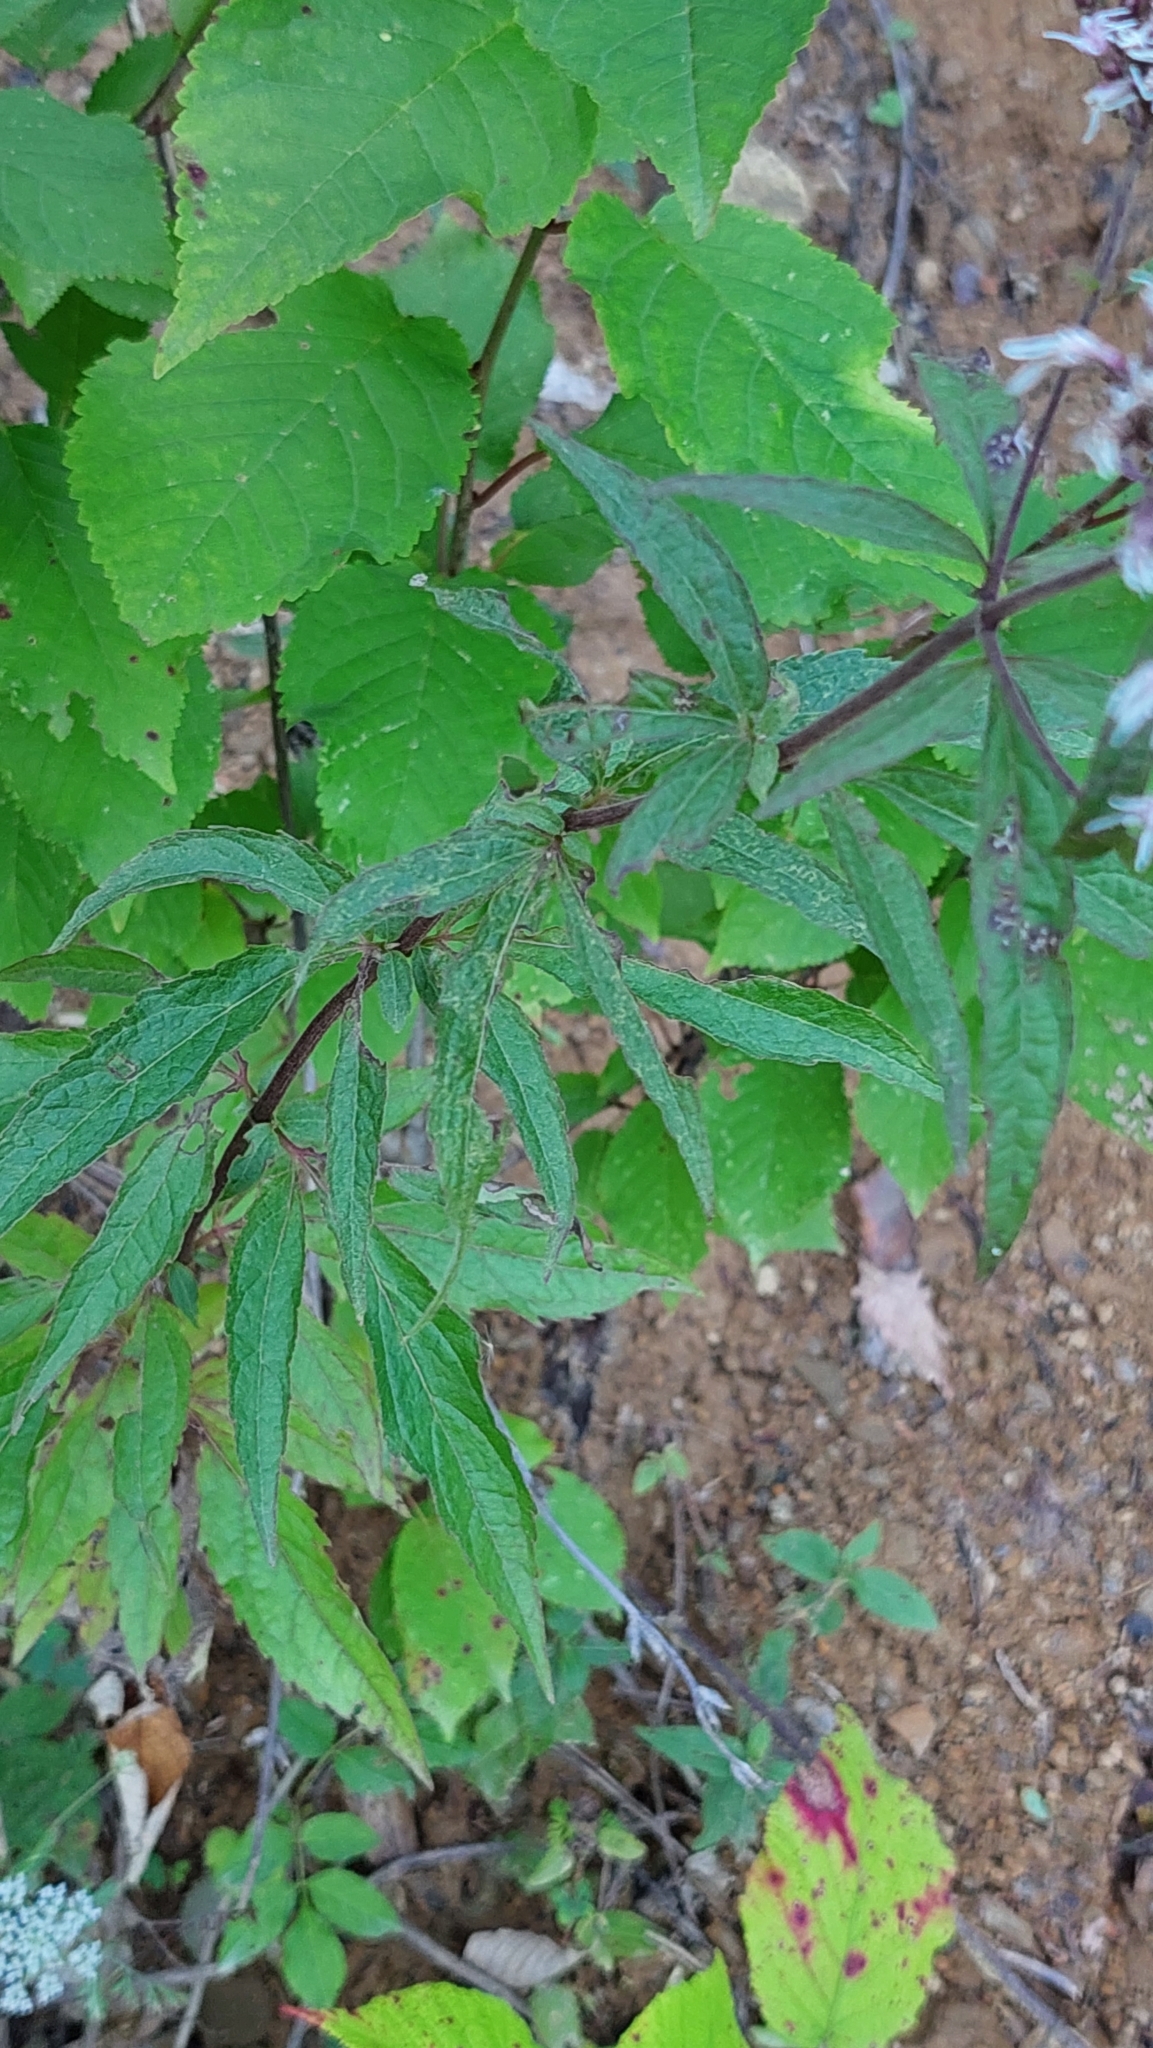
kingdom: Plantae
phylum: Tracheophyta
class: Magnoliopsida
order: Asterales
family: Asteraceae
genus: Eupatorium
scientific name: Eupatorium cannabinum
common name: Hemp-agrimony
